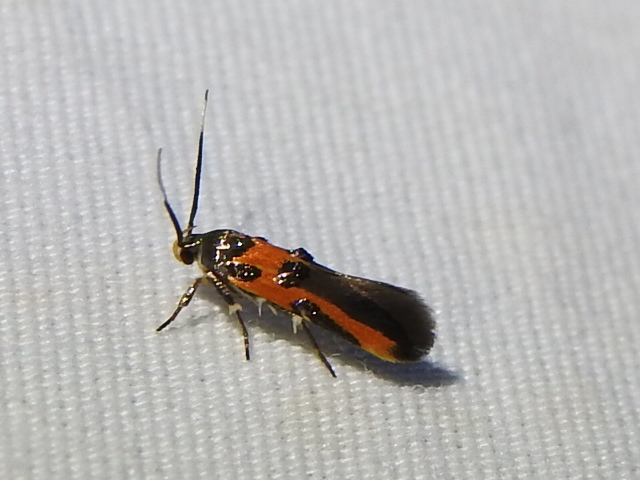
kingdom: Animalia
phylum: Arthropoda
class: Insecta
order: Lepidoptera
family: Cosmopterigidae
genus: Euclemensia
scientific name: Euclemensia bassettella
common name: Kermes scale moth
